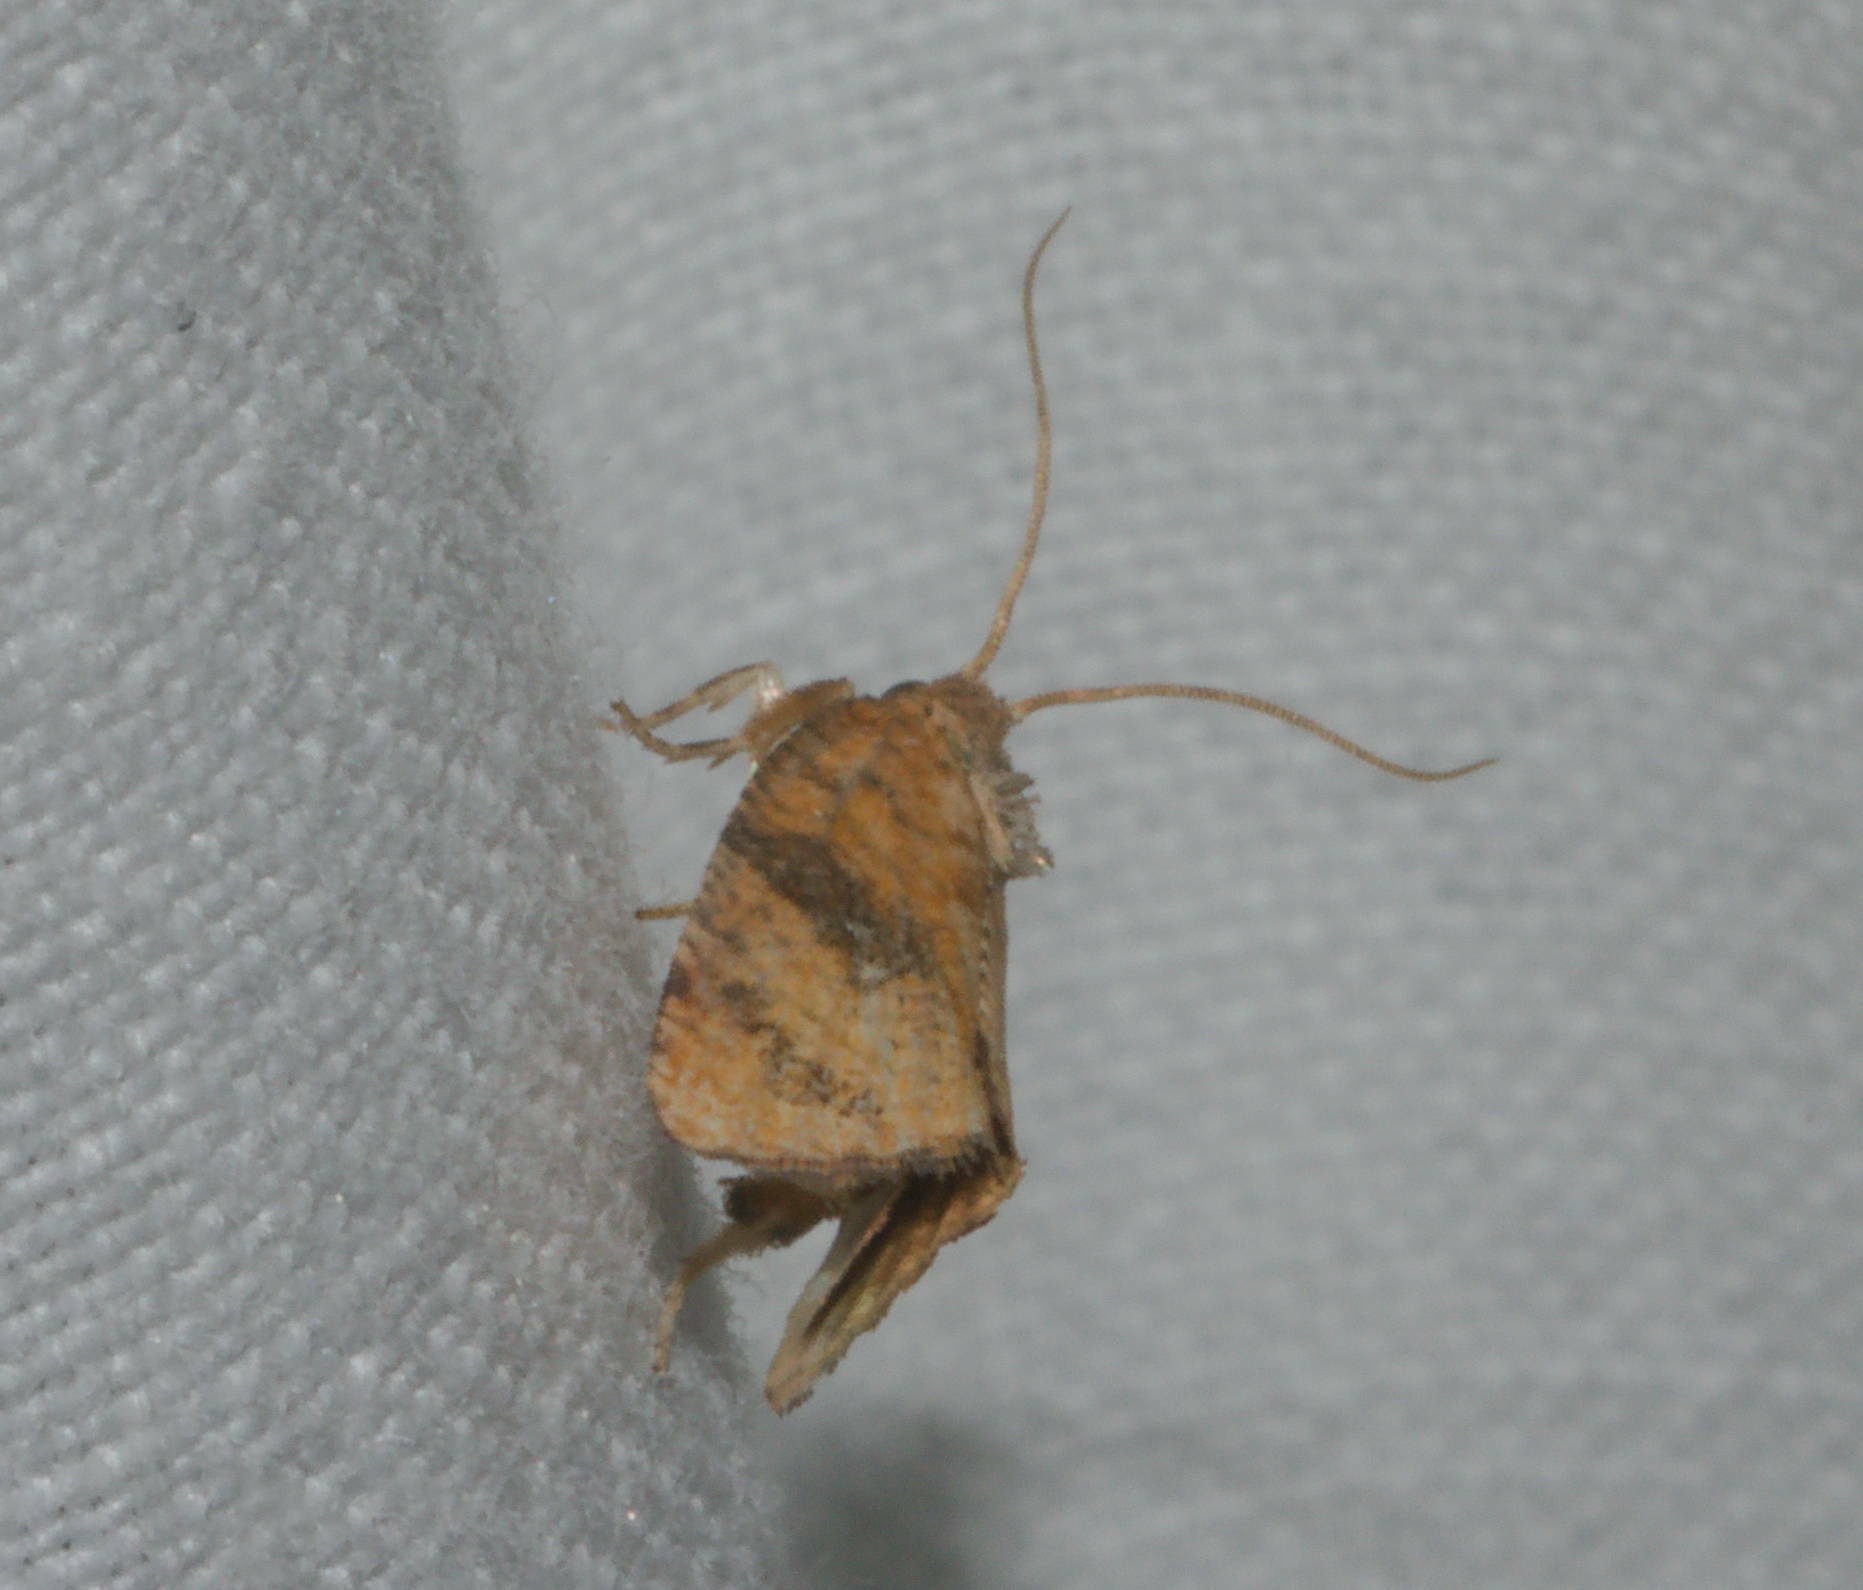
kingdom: Animalia
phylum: Arthropoda
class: Insecta
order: Lepidoptera
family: Tortricidae
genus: Cryptophlebia
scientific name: Cryptophlebia illepida
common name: Moth
